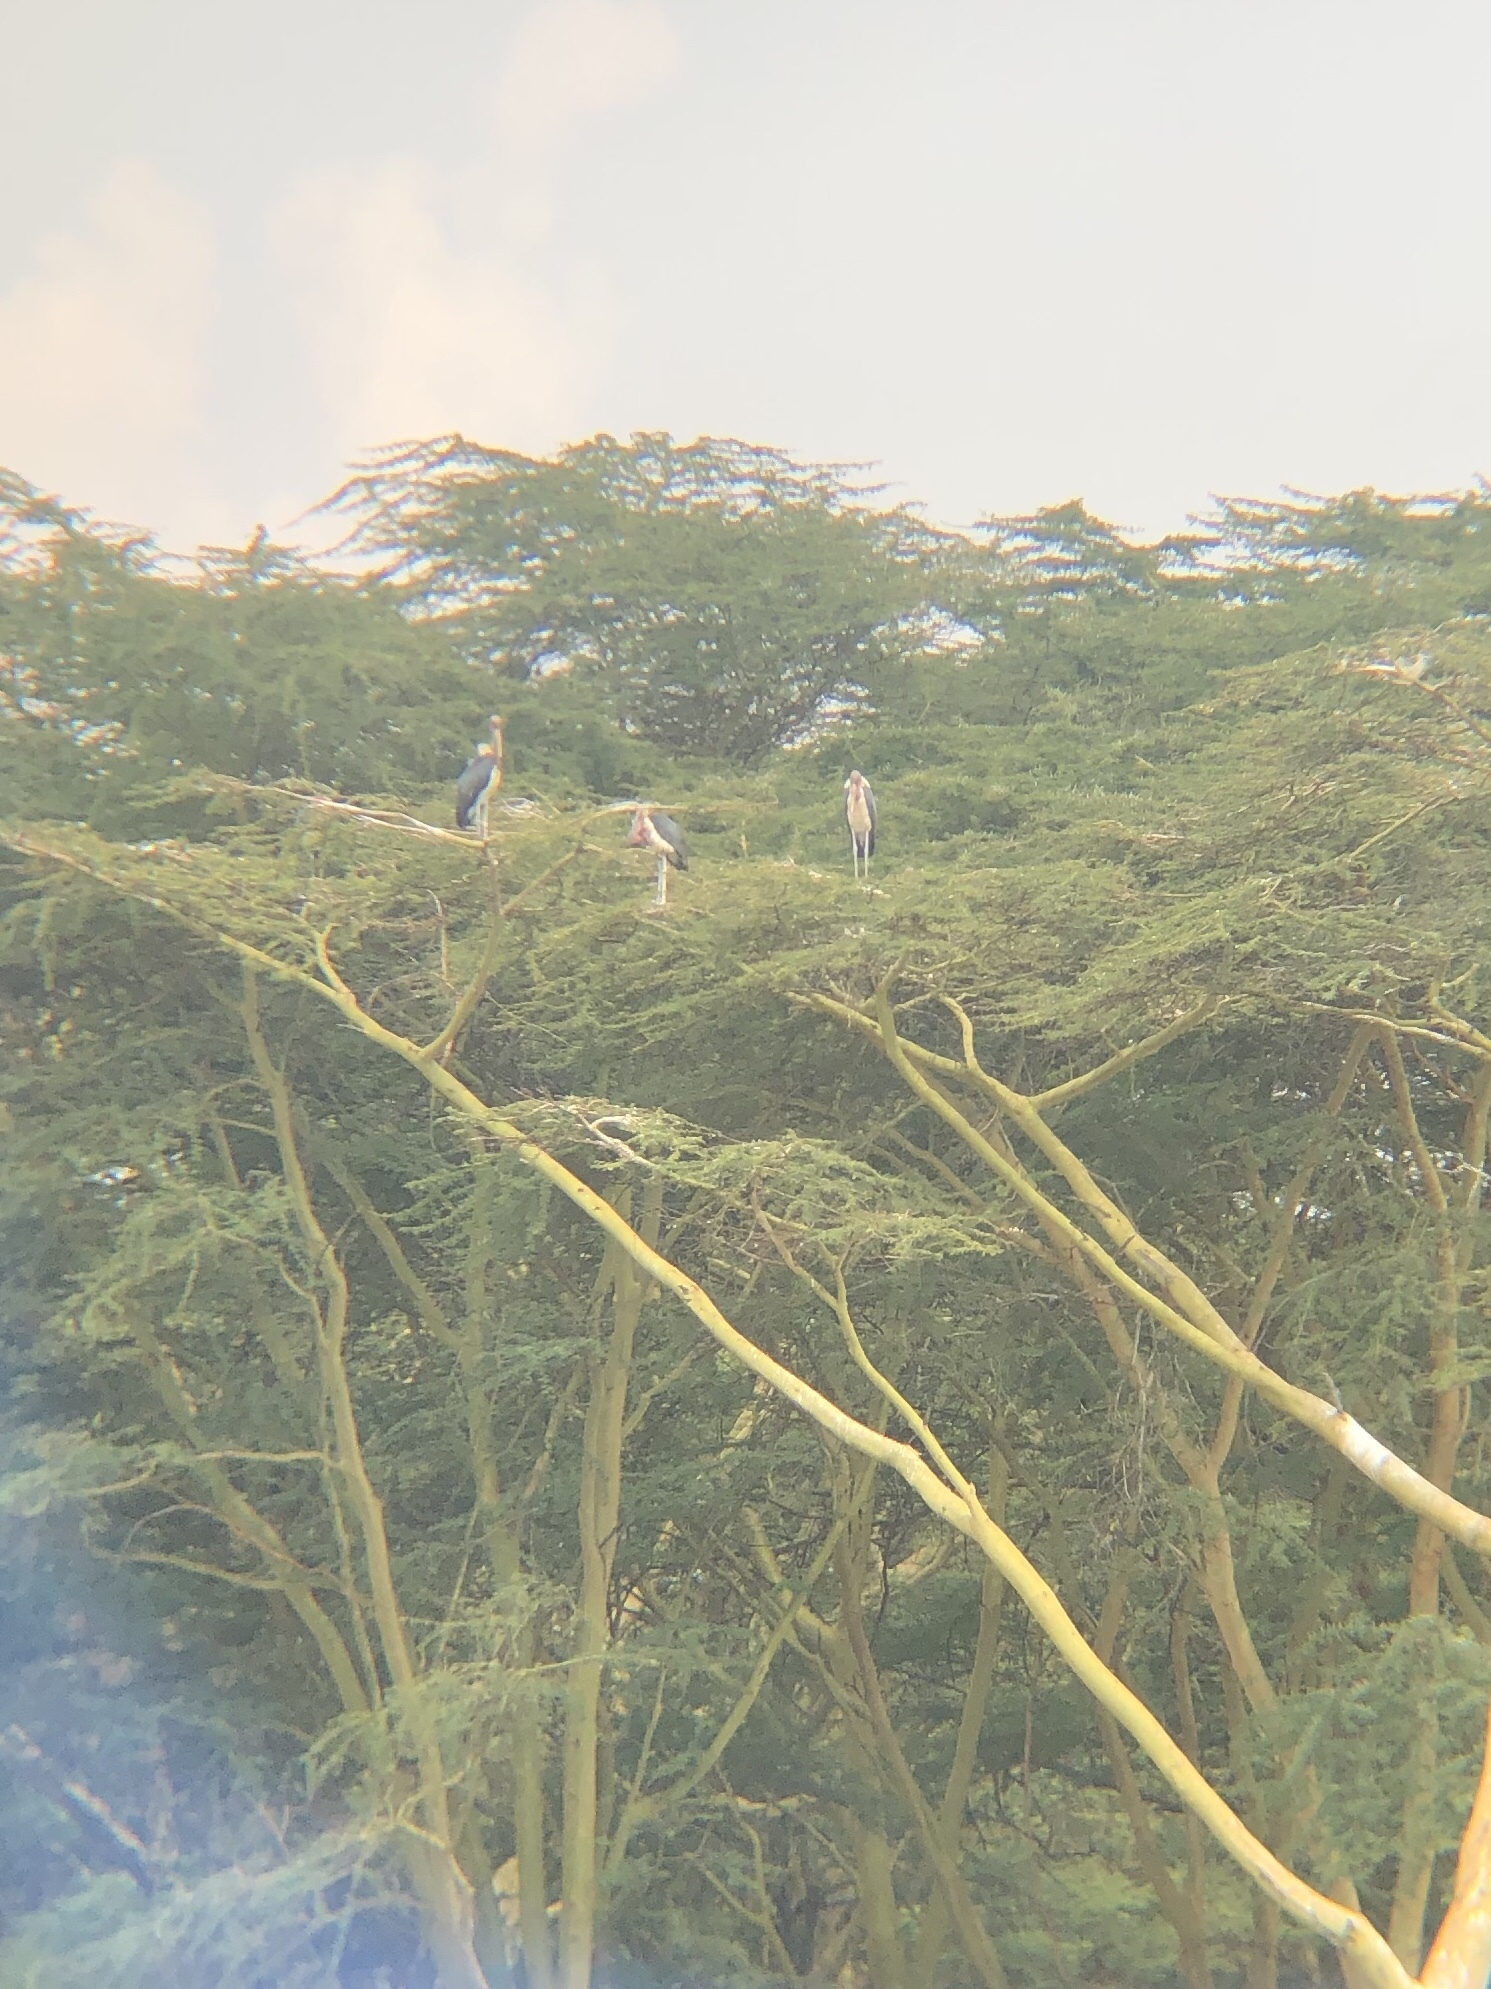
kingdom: Animalia
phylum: Chordata
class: Aves
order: Ciconiiformes
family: Ciconiidae
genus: Leptoptilos
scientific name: Leptoptilos crumenifer
